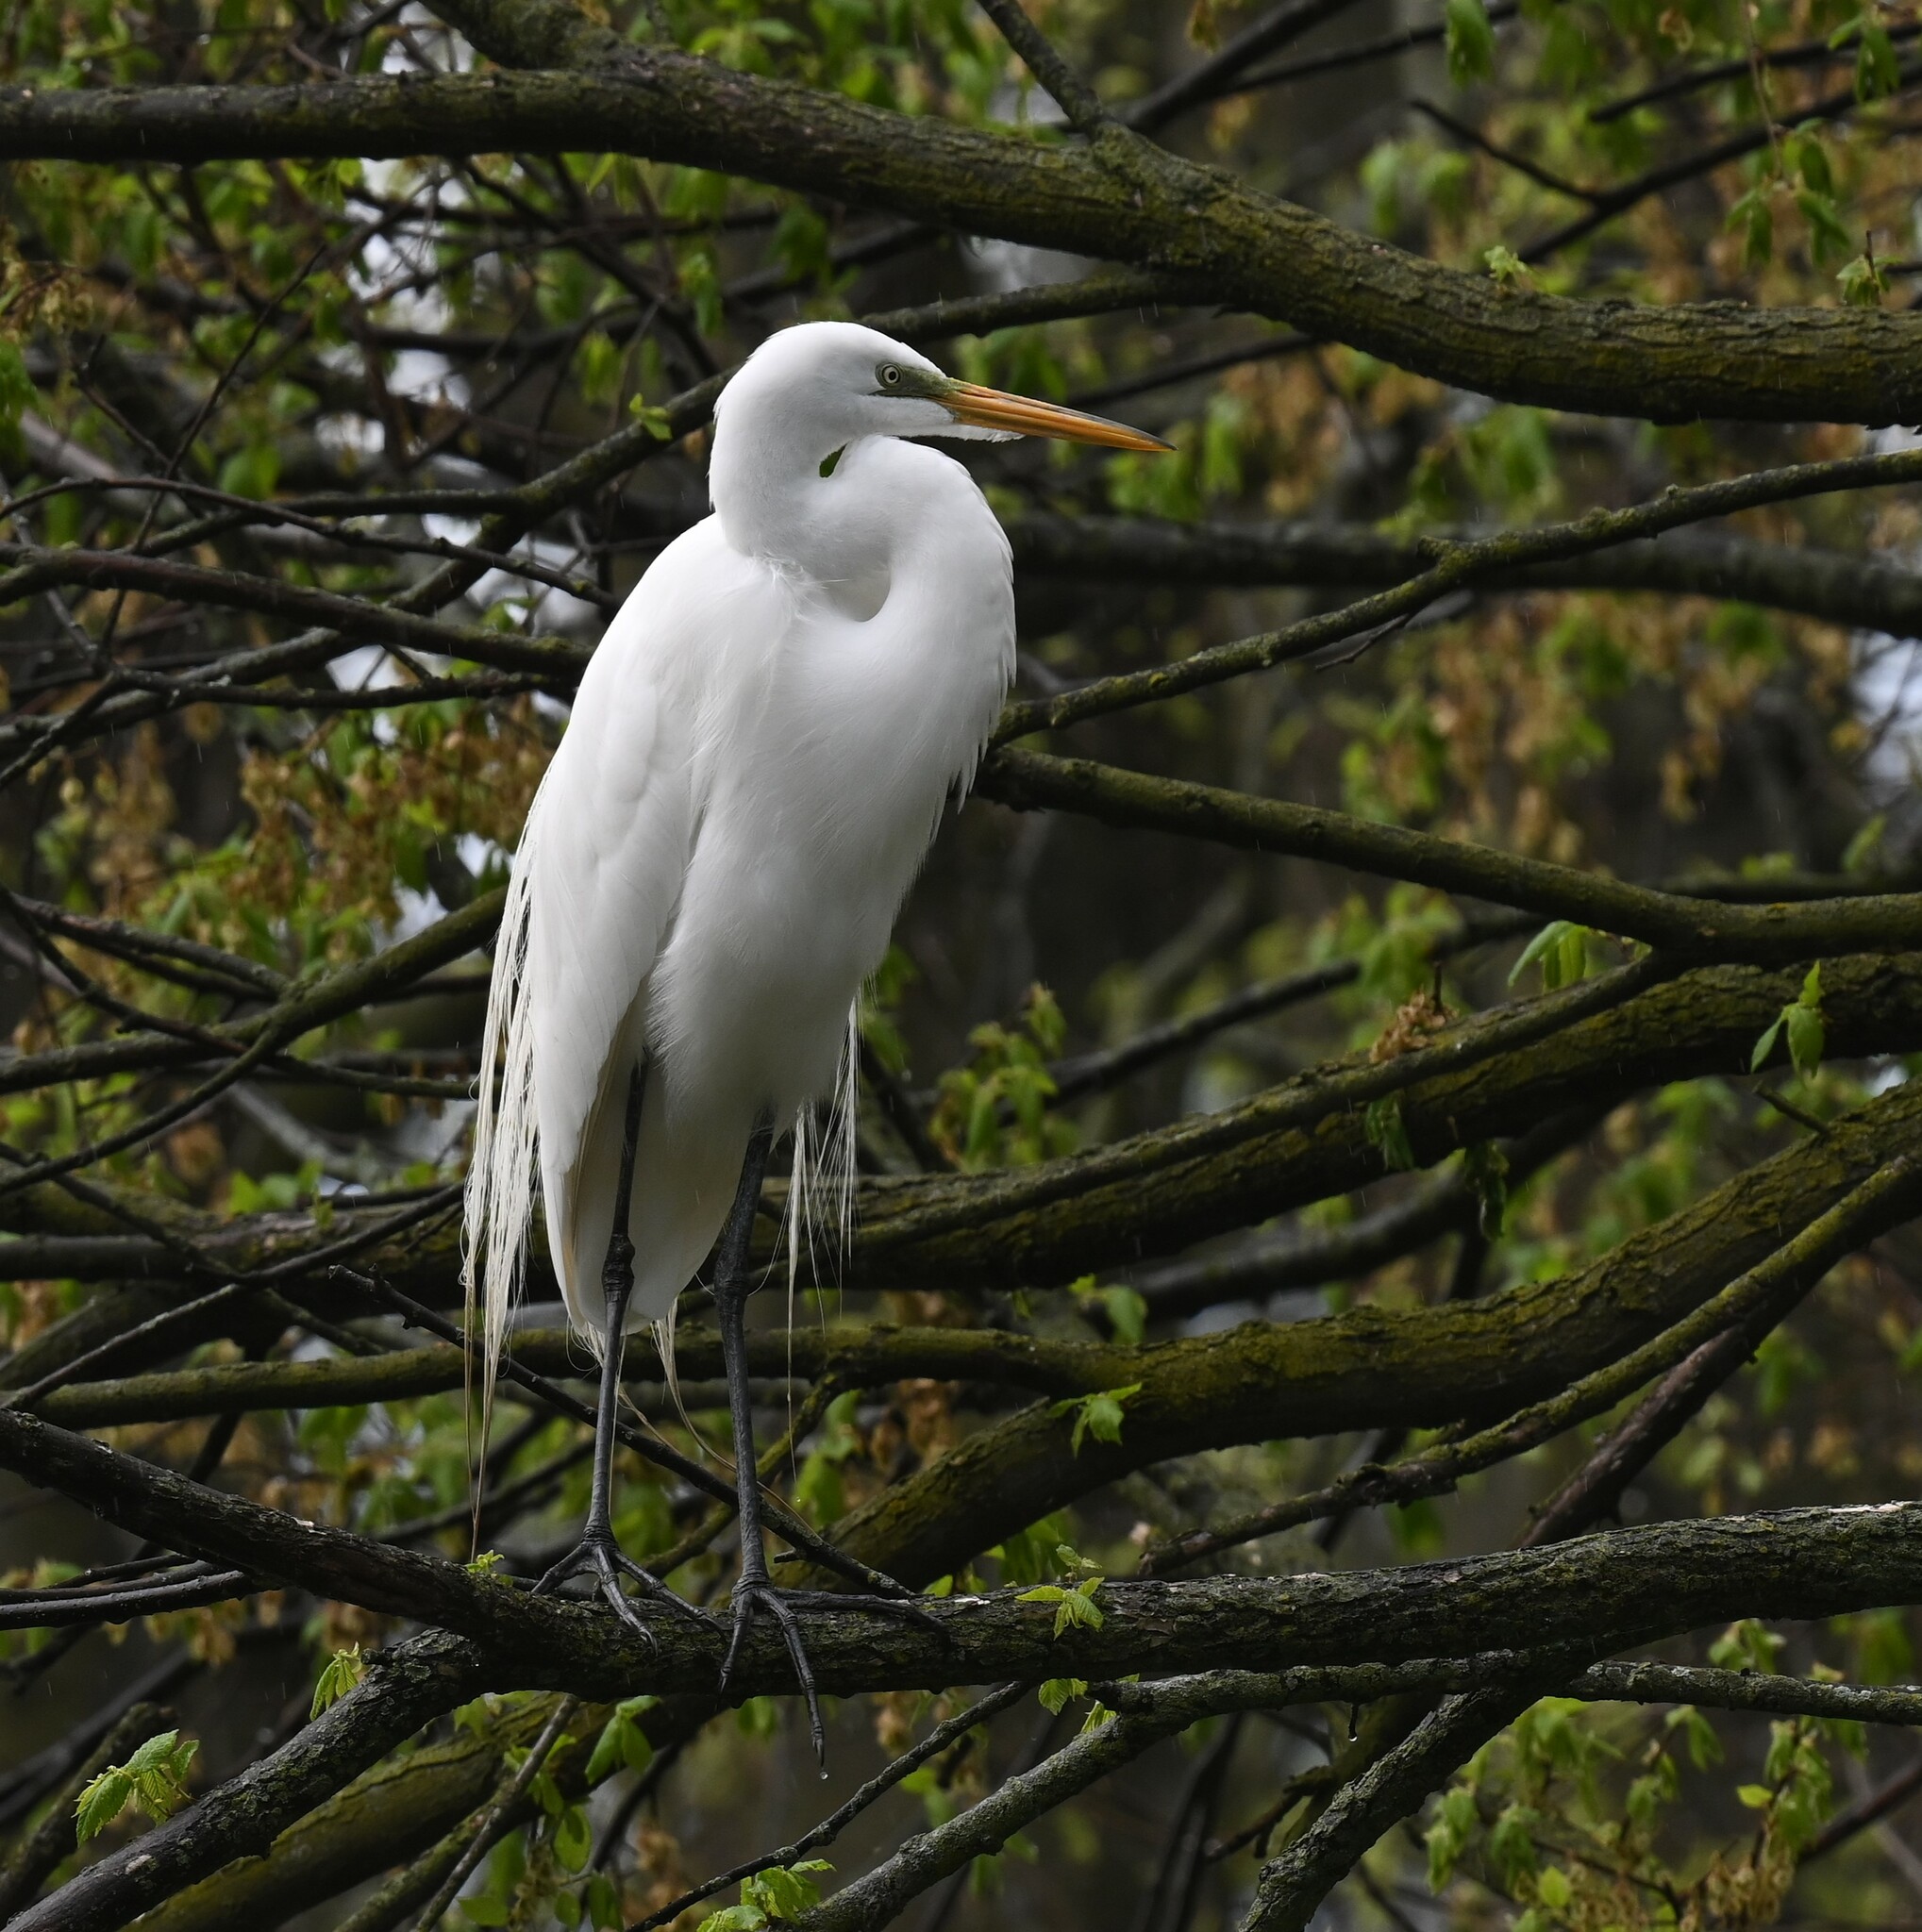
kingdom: Animalia
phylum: Chordata
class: Aves
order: Pelecaniformes
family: Ardeidae
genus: Ardea
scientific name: Ardea alba
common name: Great egret
